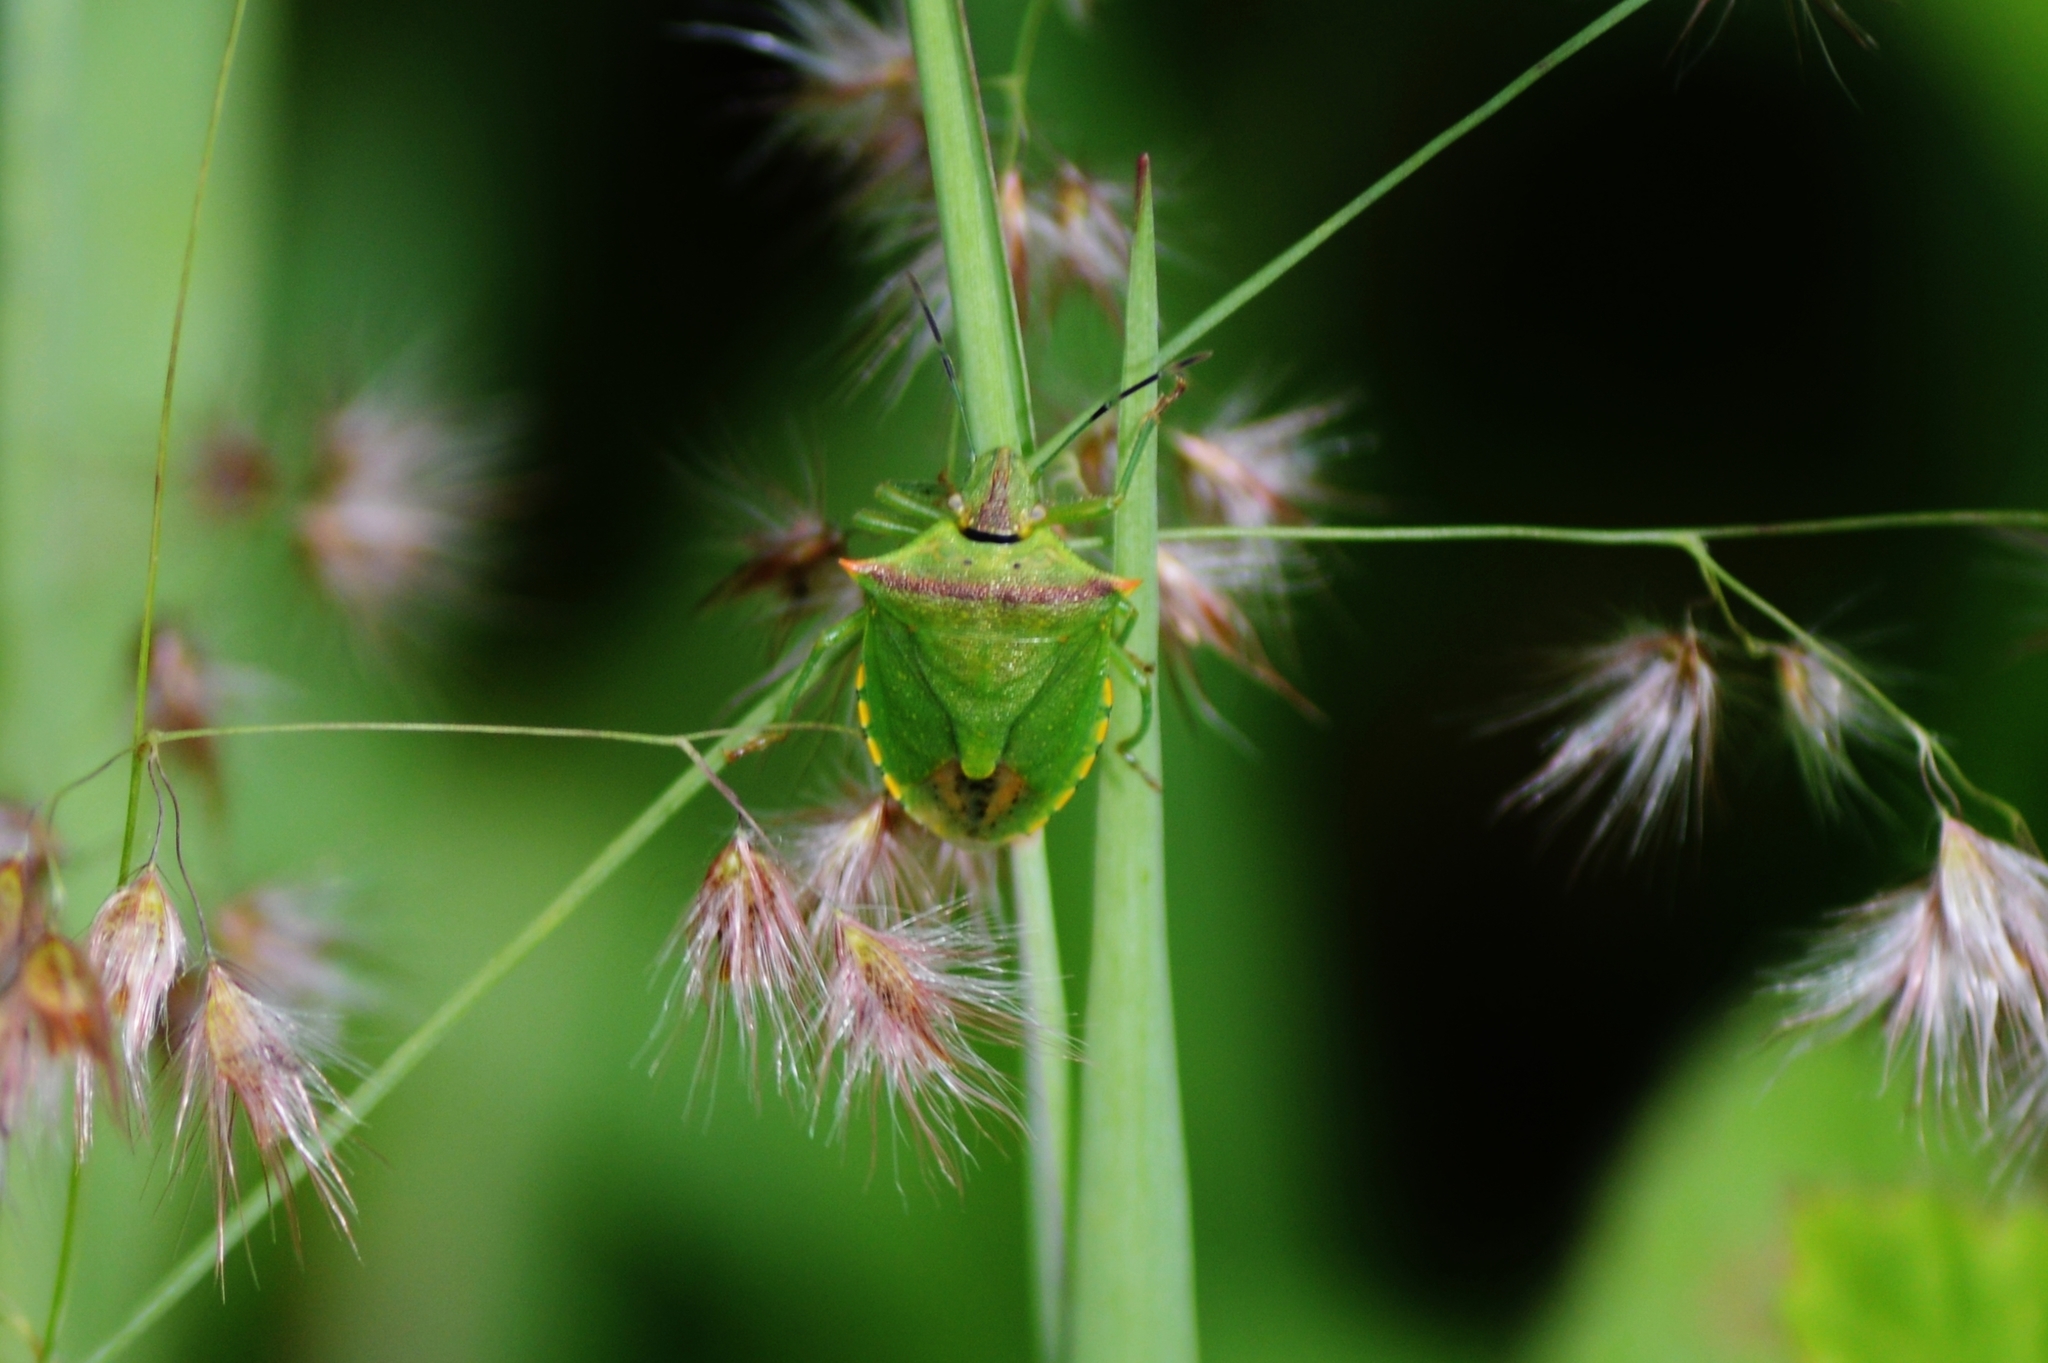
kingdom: Animalia
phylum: Arthropoda
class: Insecta
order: Hemiptera
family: Pentatomidae
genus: Thyanta
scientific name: Thyanta perditor
